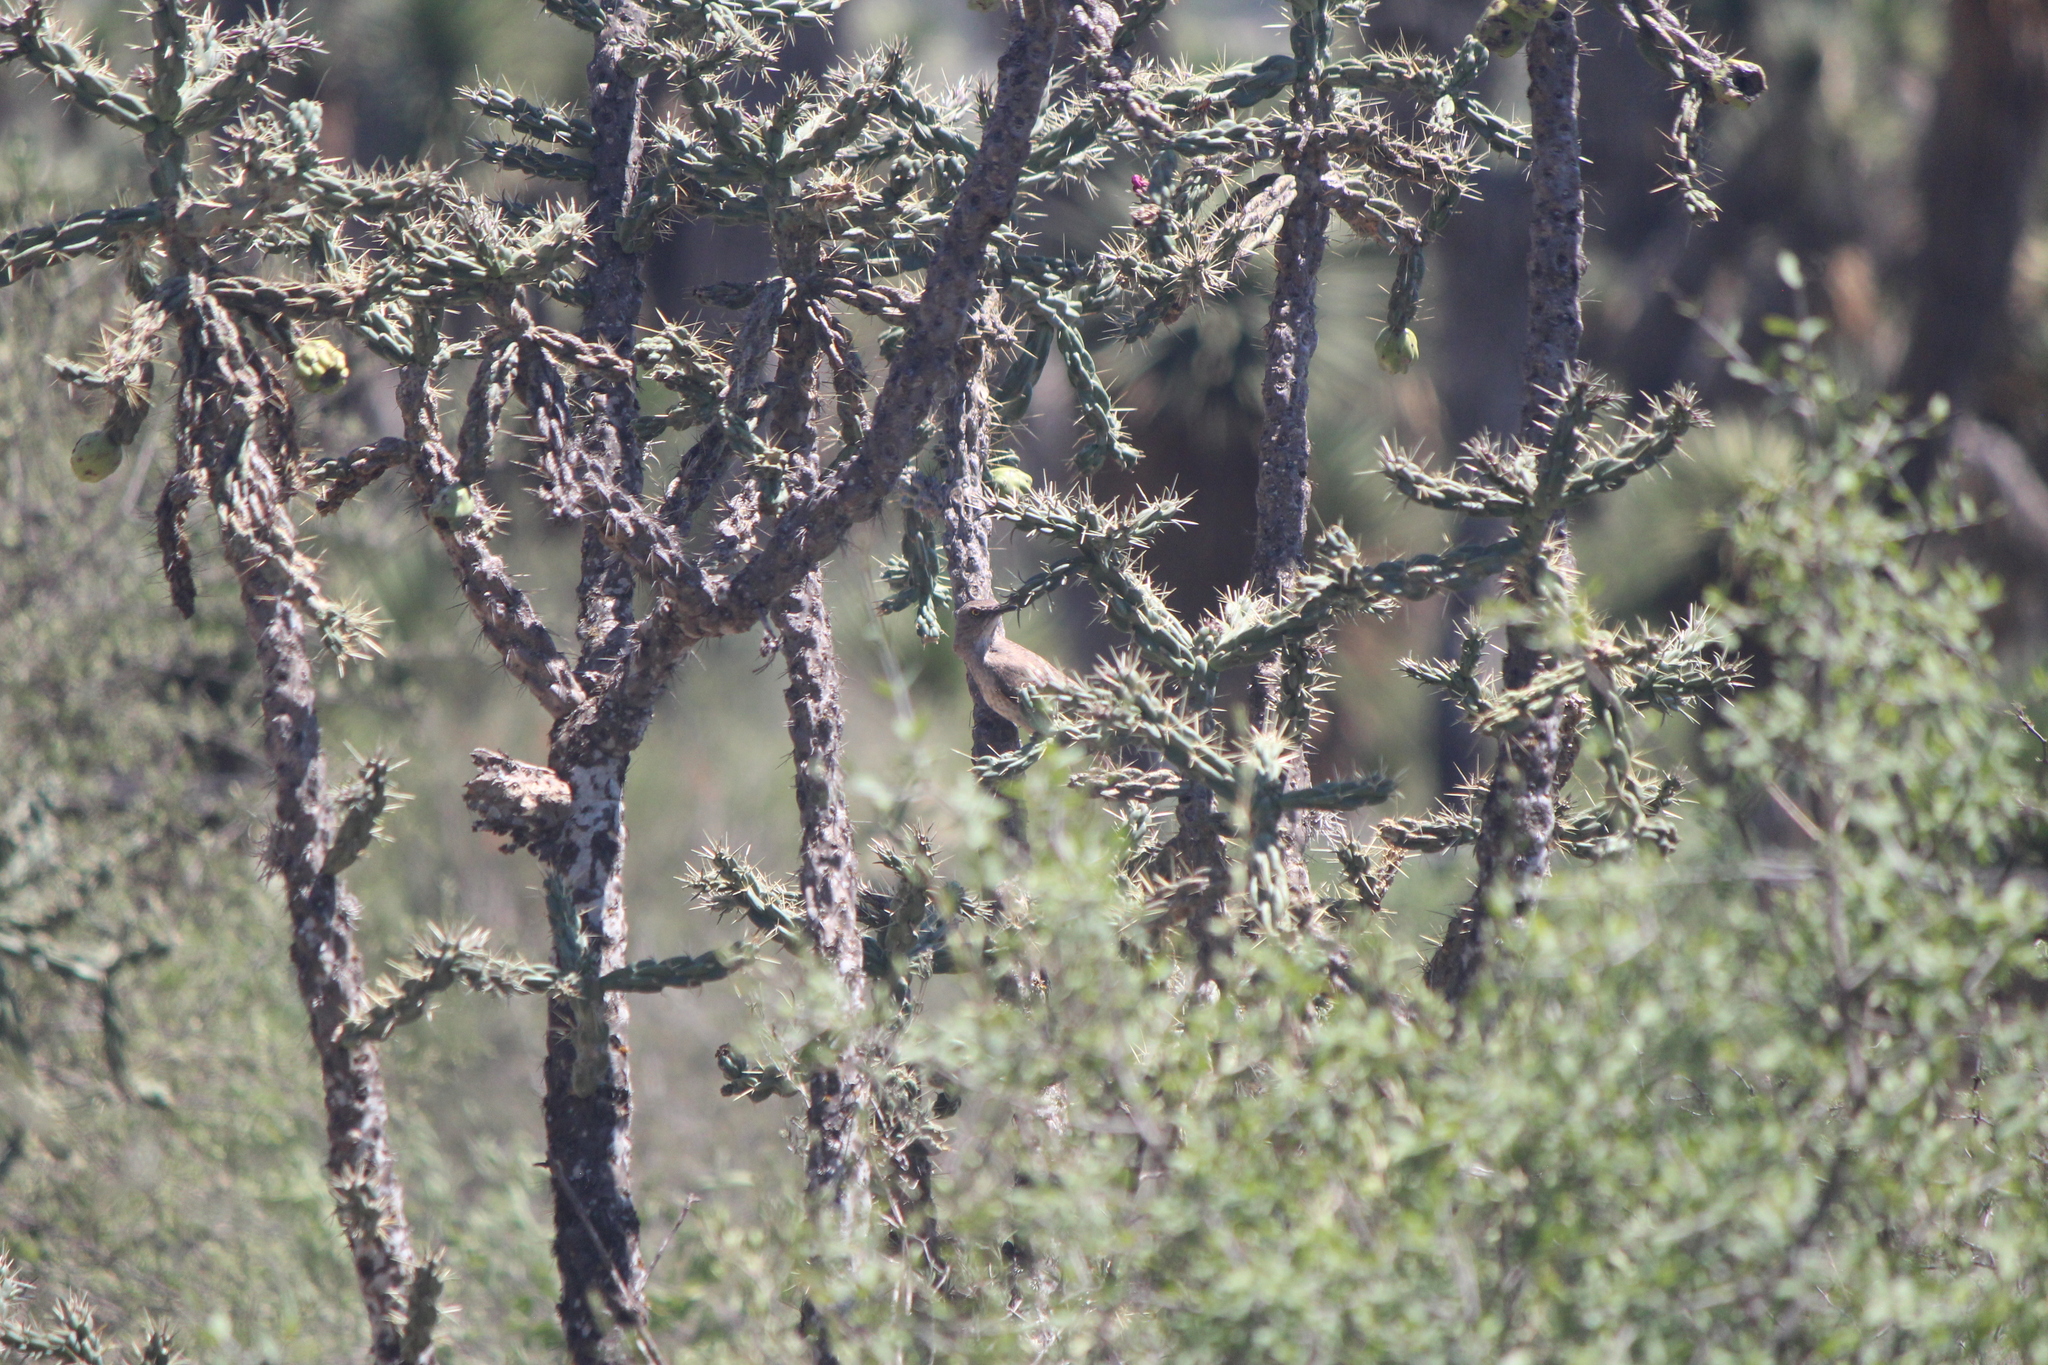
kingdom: Animalia
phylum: Chordata
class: Aves
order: Passeriformes
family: Mimidae
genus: Toxostoma
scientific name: Toxostoma curvirostre
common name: Curve-billed thrasher
